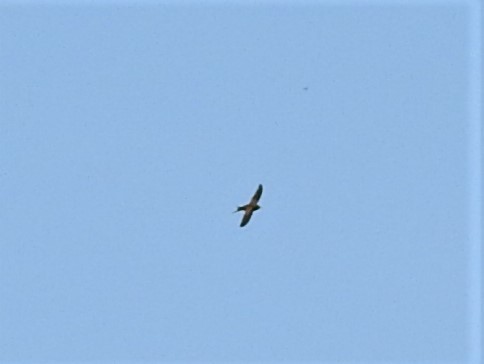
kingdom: Animalia
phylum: Chordata
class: Aves
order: Apodiformes
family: Apodidae
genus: Apus
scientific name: Apus apus
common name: Common swift
